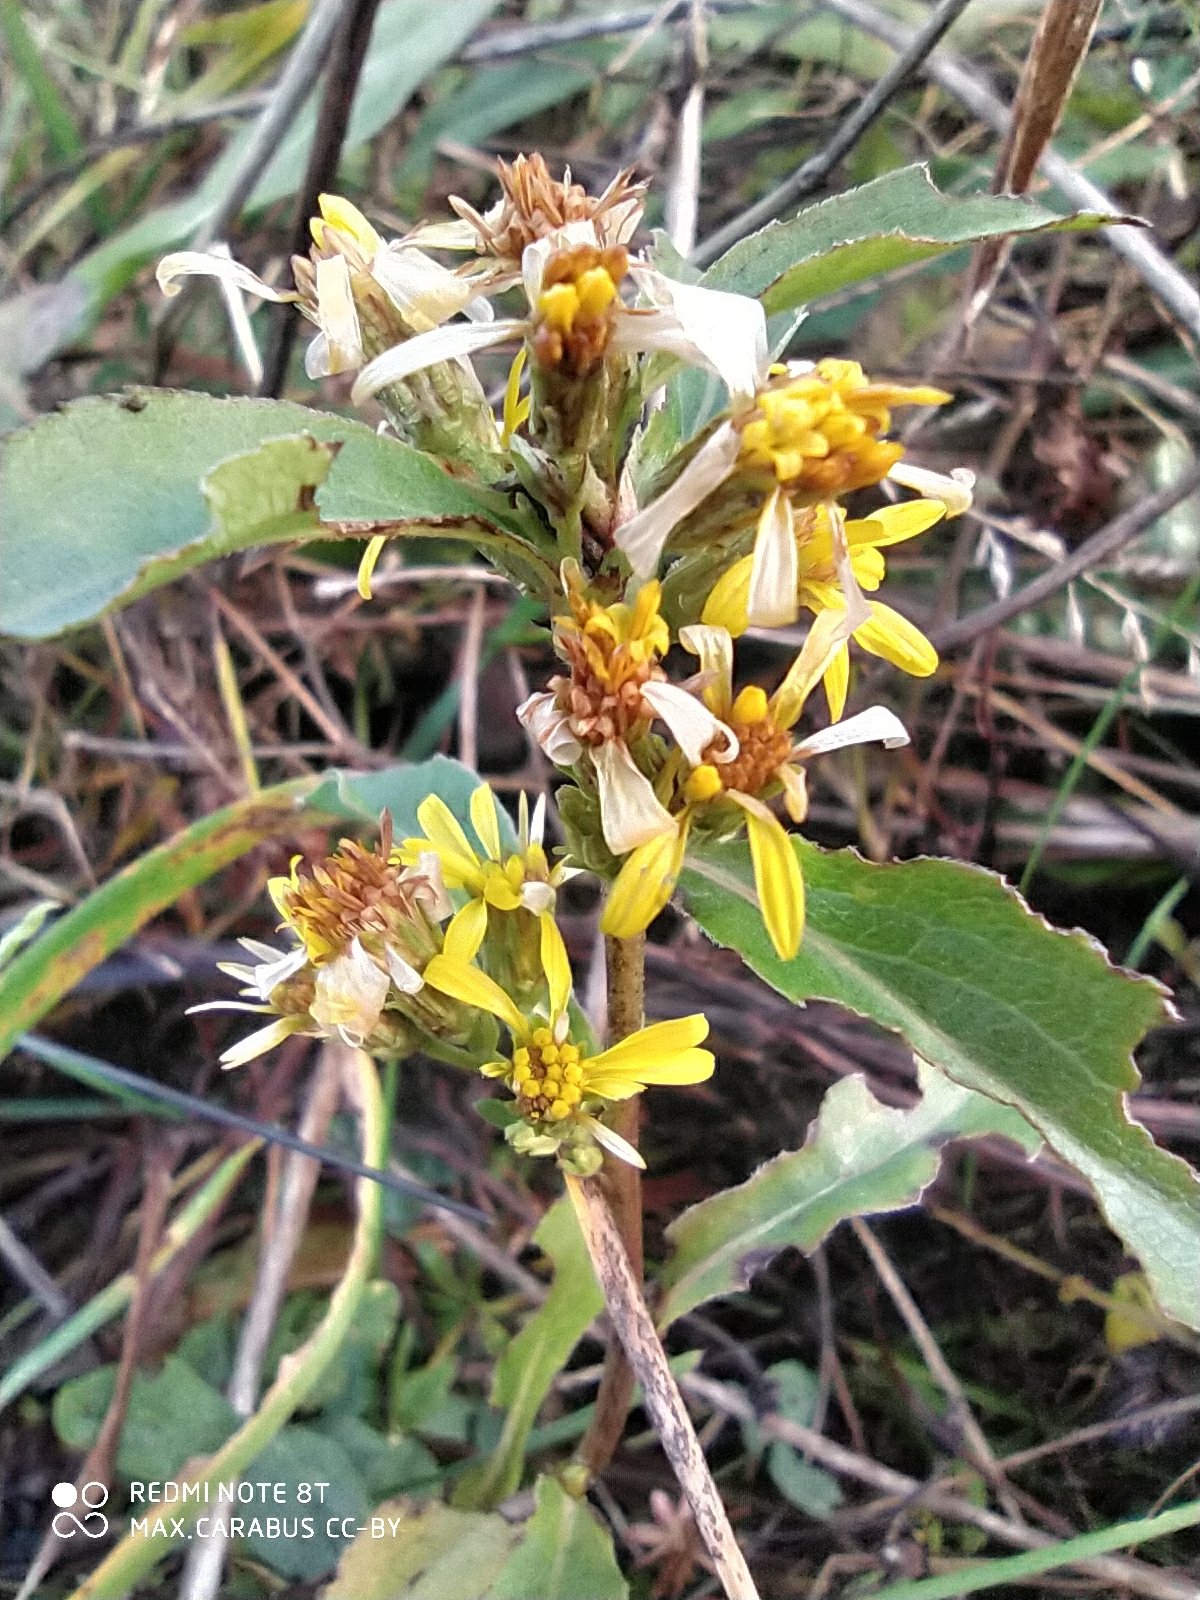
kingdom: Plantae
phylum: Tracheophyta
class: Magnoliopsida
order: Asterales
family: Asteraceae
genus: Solidago
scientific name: Solidago virgaurea
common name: Goldenrod
